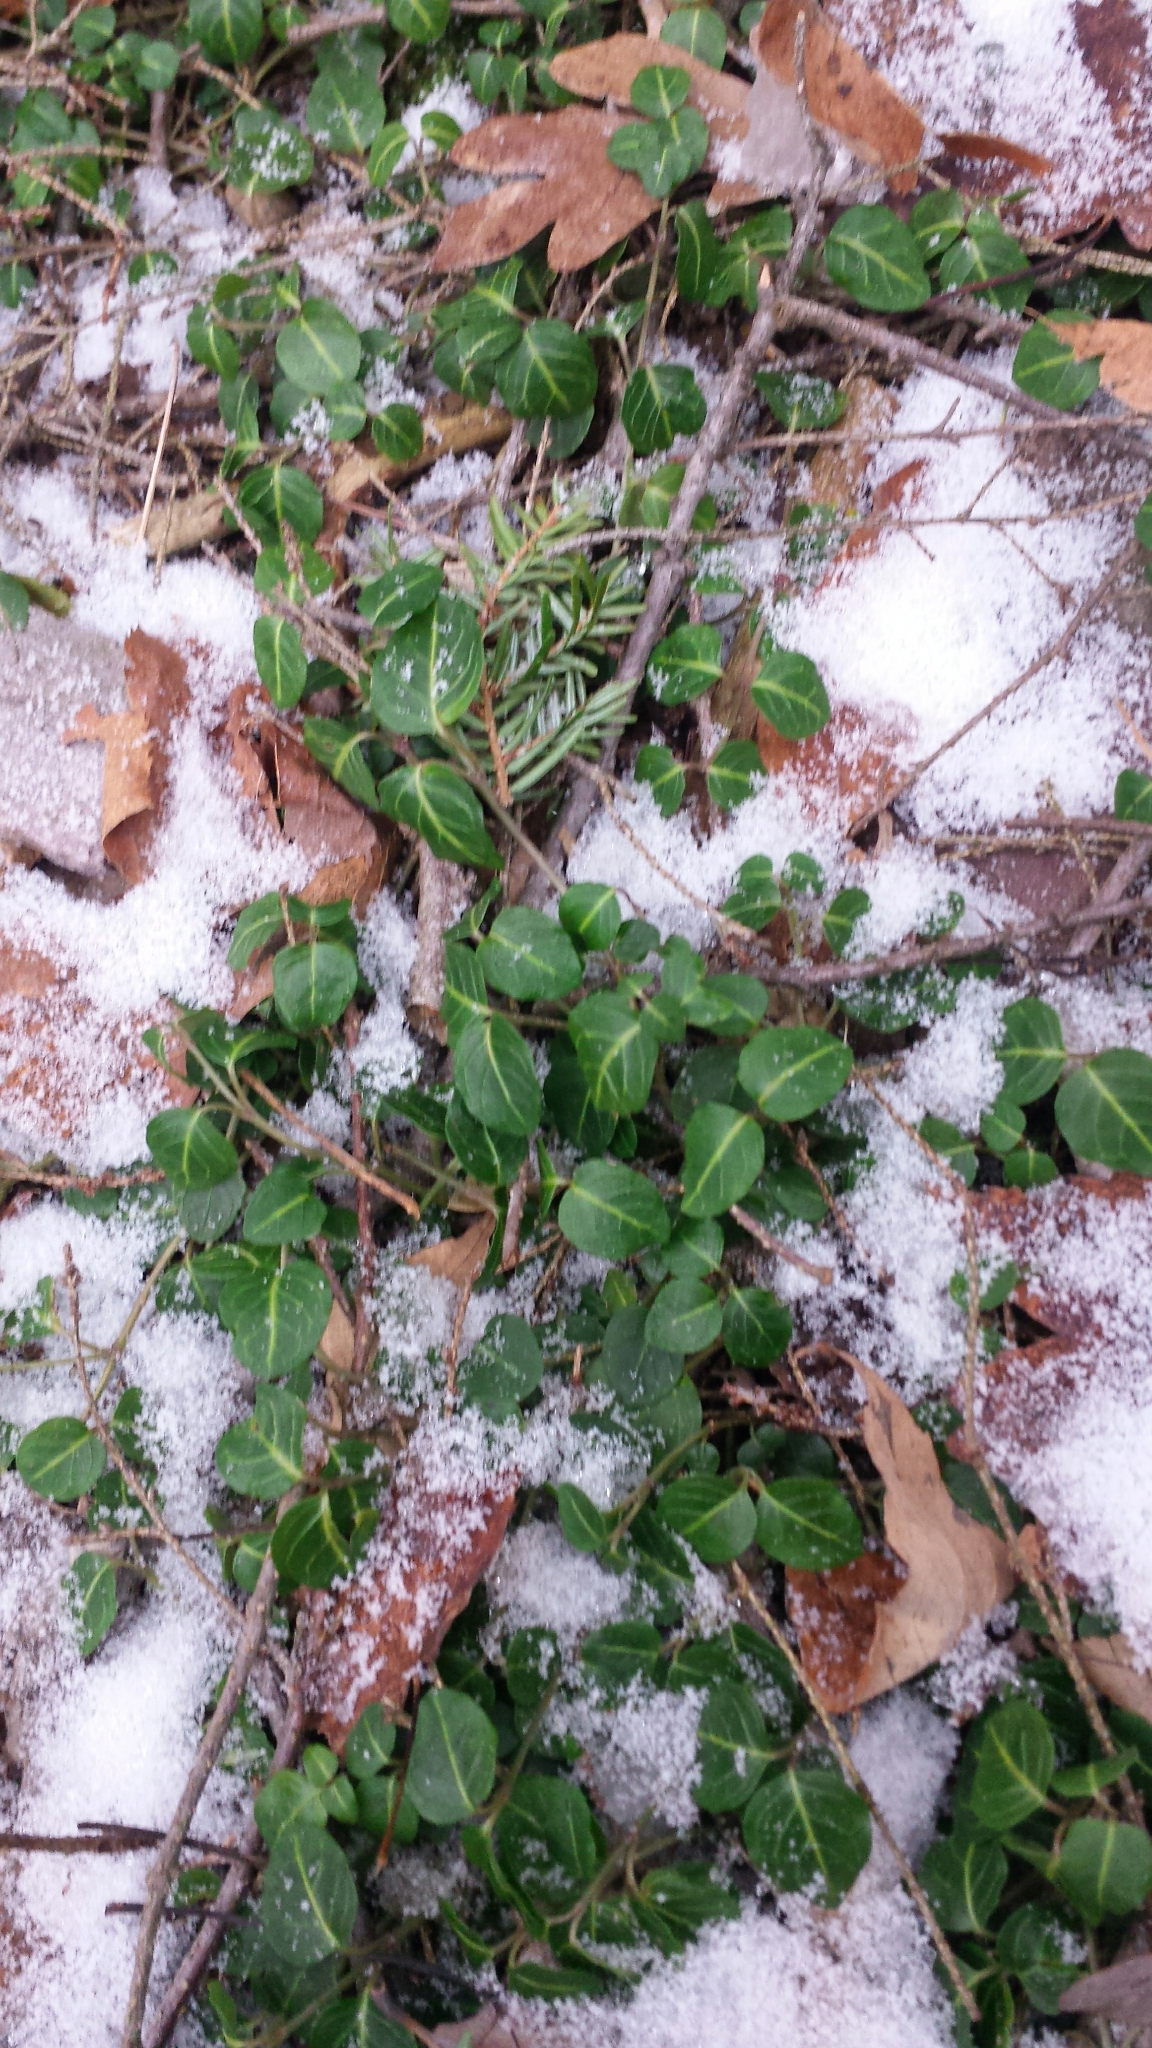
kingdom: Plantae
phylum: Tracheophyta
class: Magnoliopsida
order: Gentianales
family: Rubiaceae
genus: Mitchella
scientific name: Mitchella repens
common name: Partridge-berry
